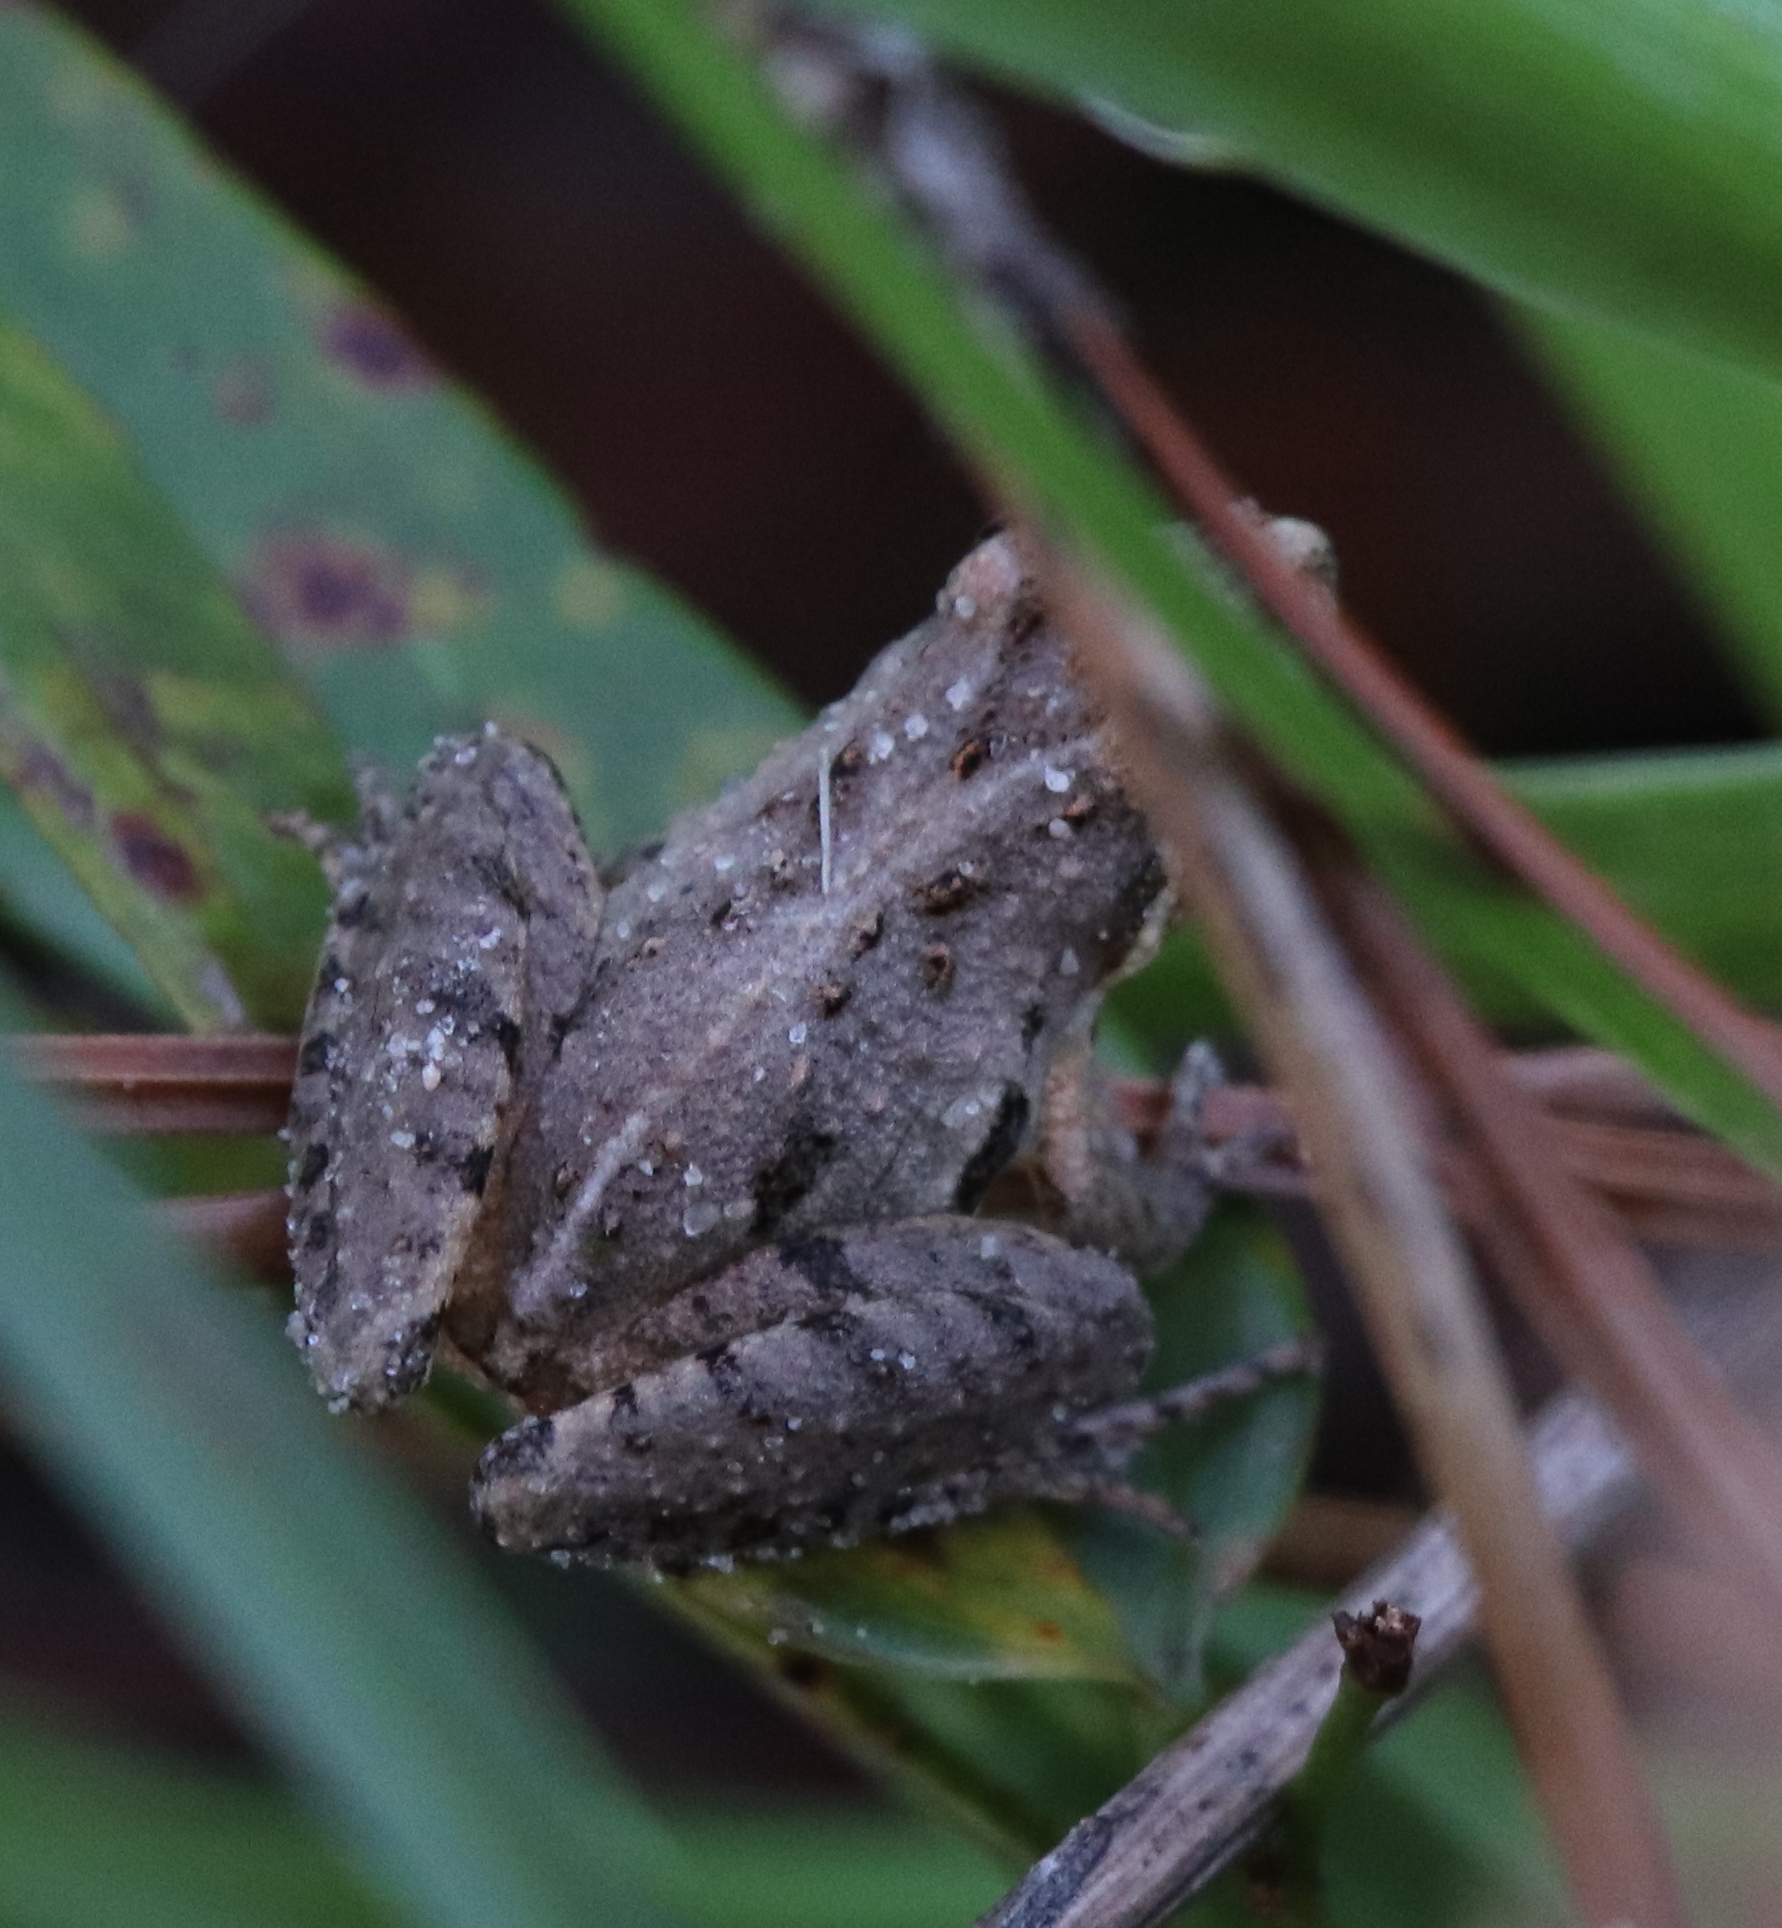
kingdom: Animalia
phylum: Chordata
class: Amphibia
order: Anura
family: Hylidae
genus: Acris
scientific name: Acris gryllus
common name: Southern cricket frog
